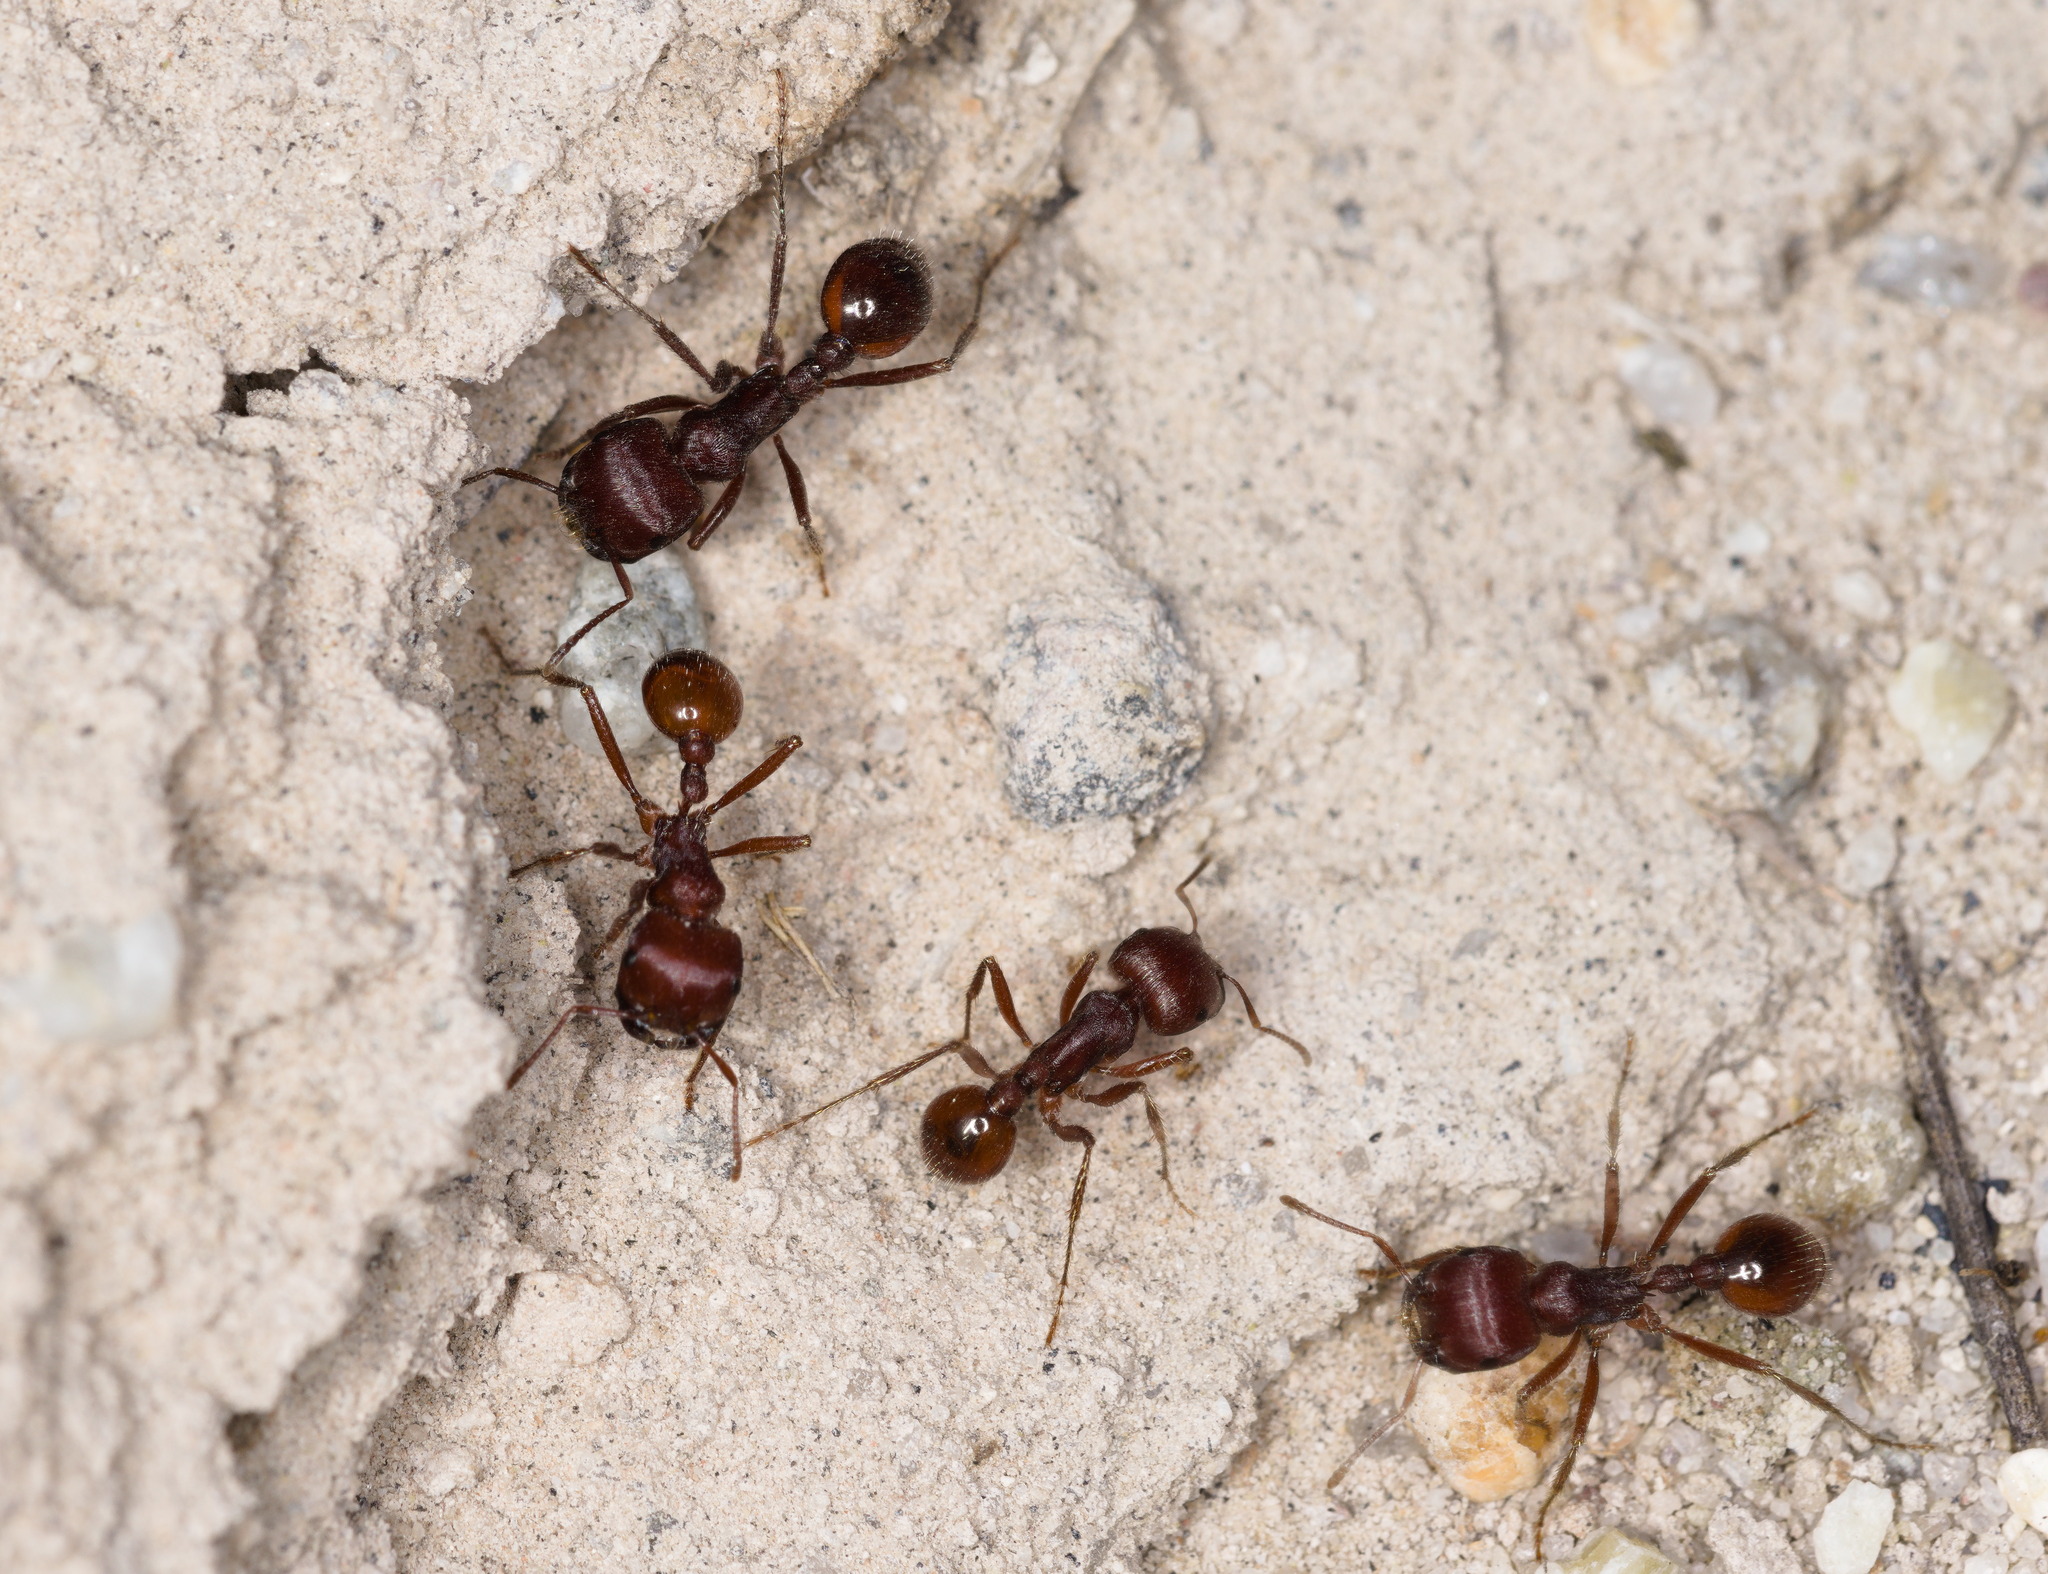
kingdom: Animalia
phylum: Arthropoda
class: Insecta
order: Hymenoptera
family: Formicidae
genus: Pogonomyrmex
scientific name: Pogonomyrmex barbatus
